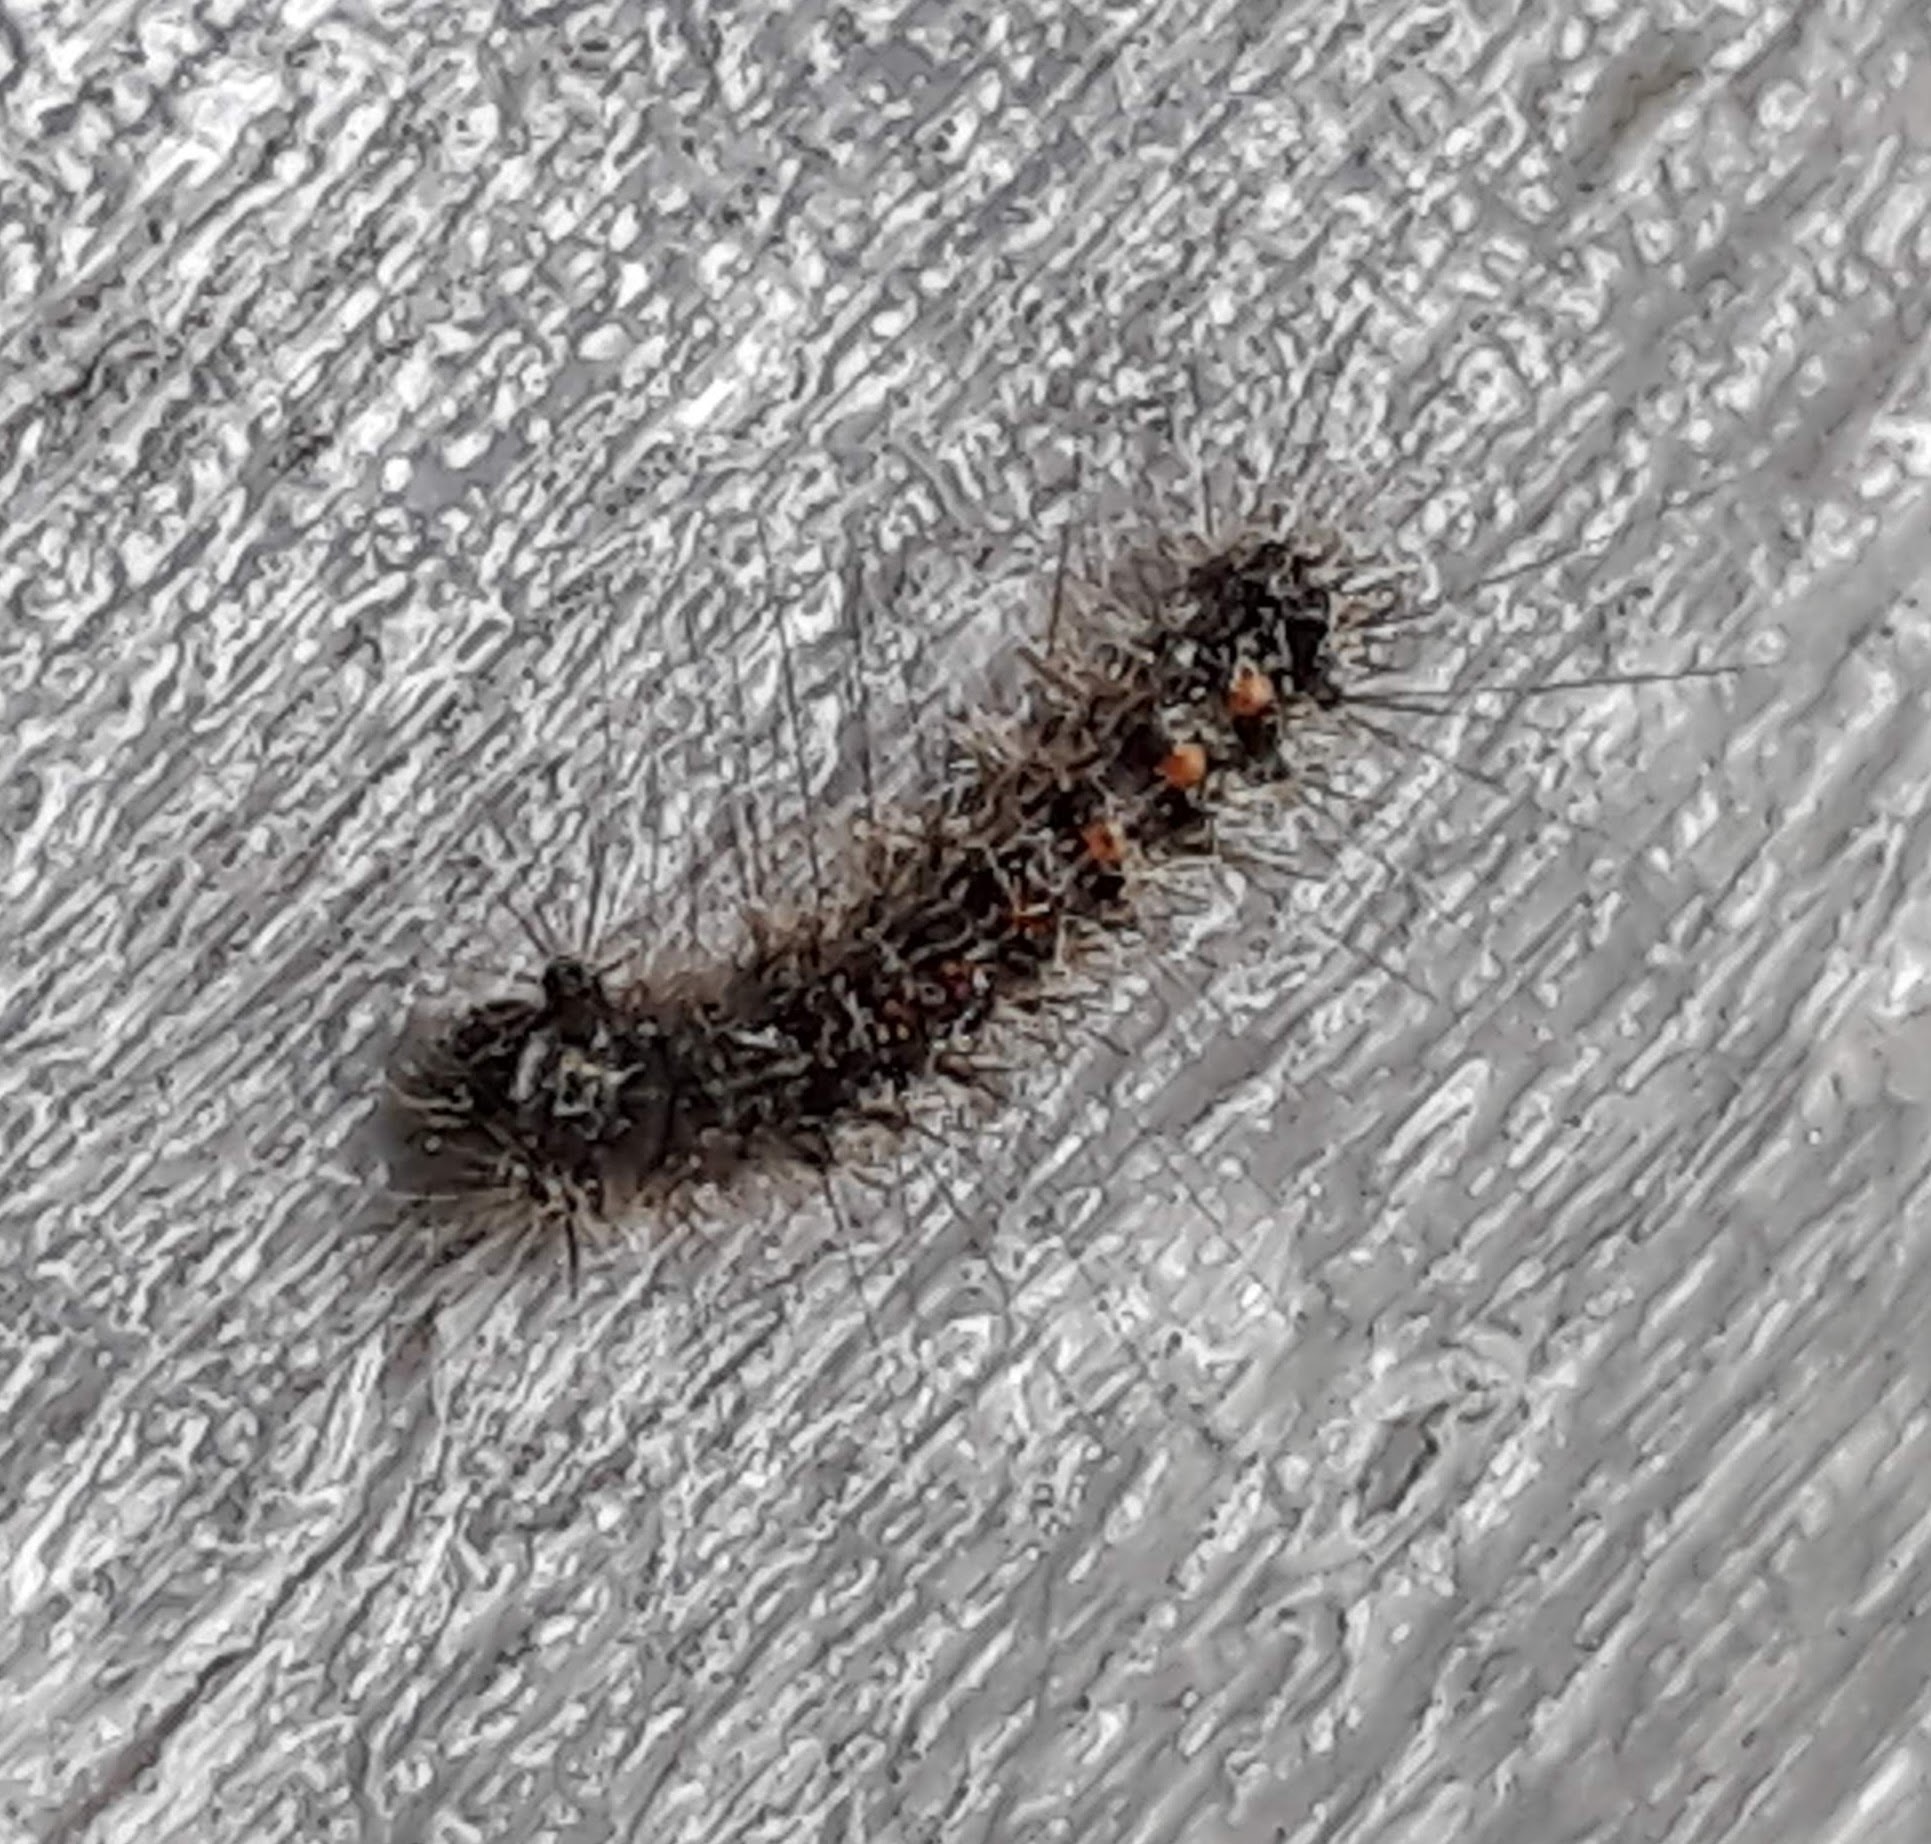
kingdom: Animalia
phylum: Arthropoda
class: Insecta
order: Lepidoptera
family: Erebidae
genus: Lymantria
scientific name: Lymantria dispar
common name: Gypsy moth
